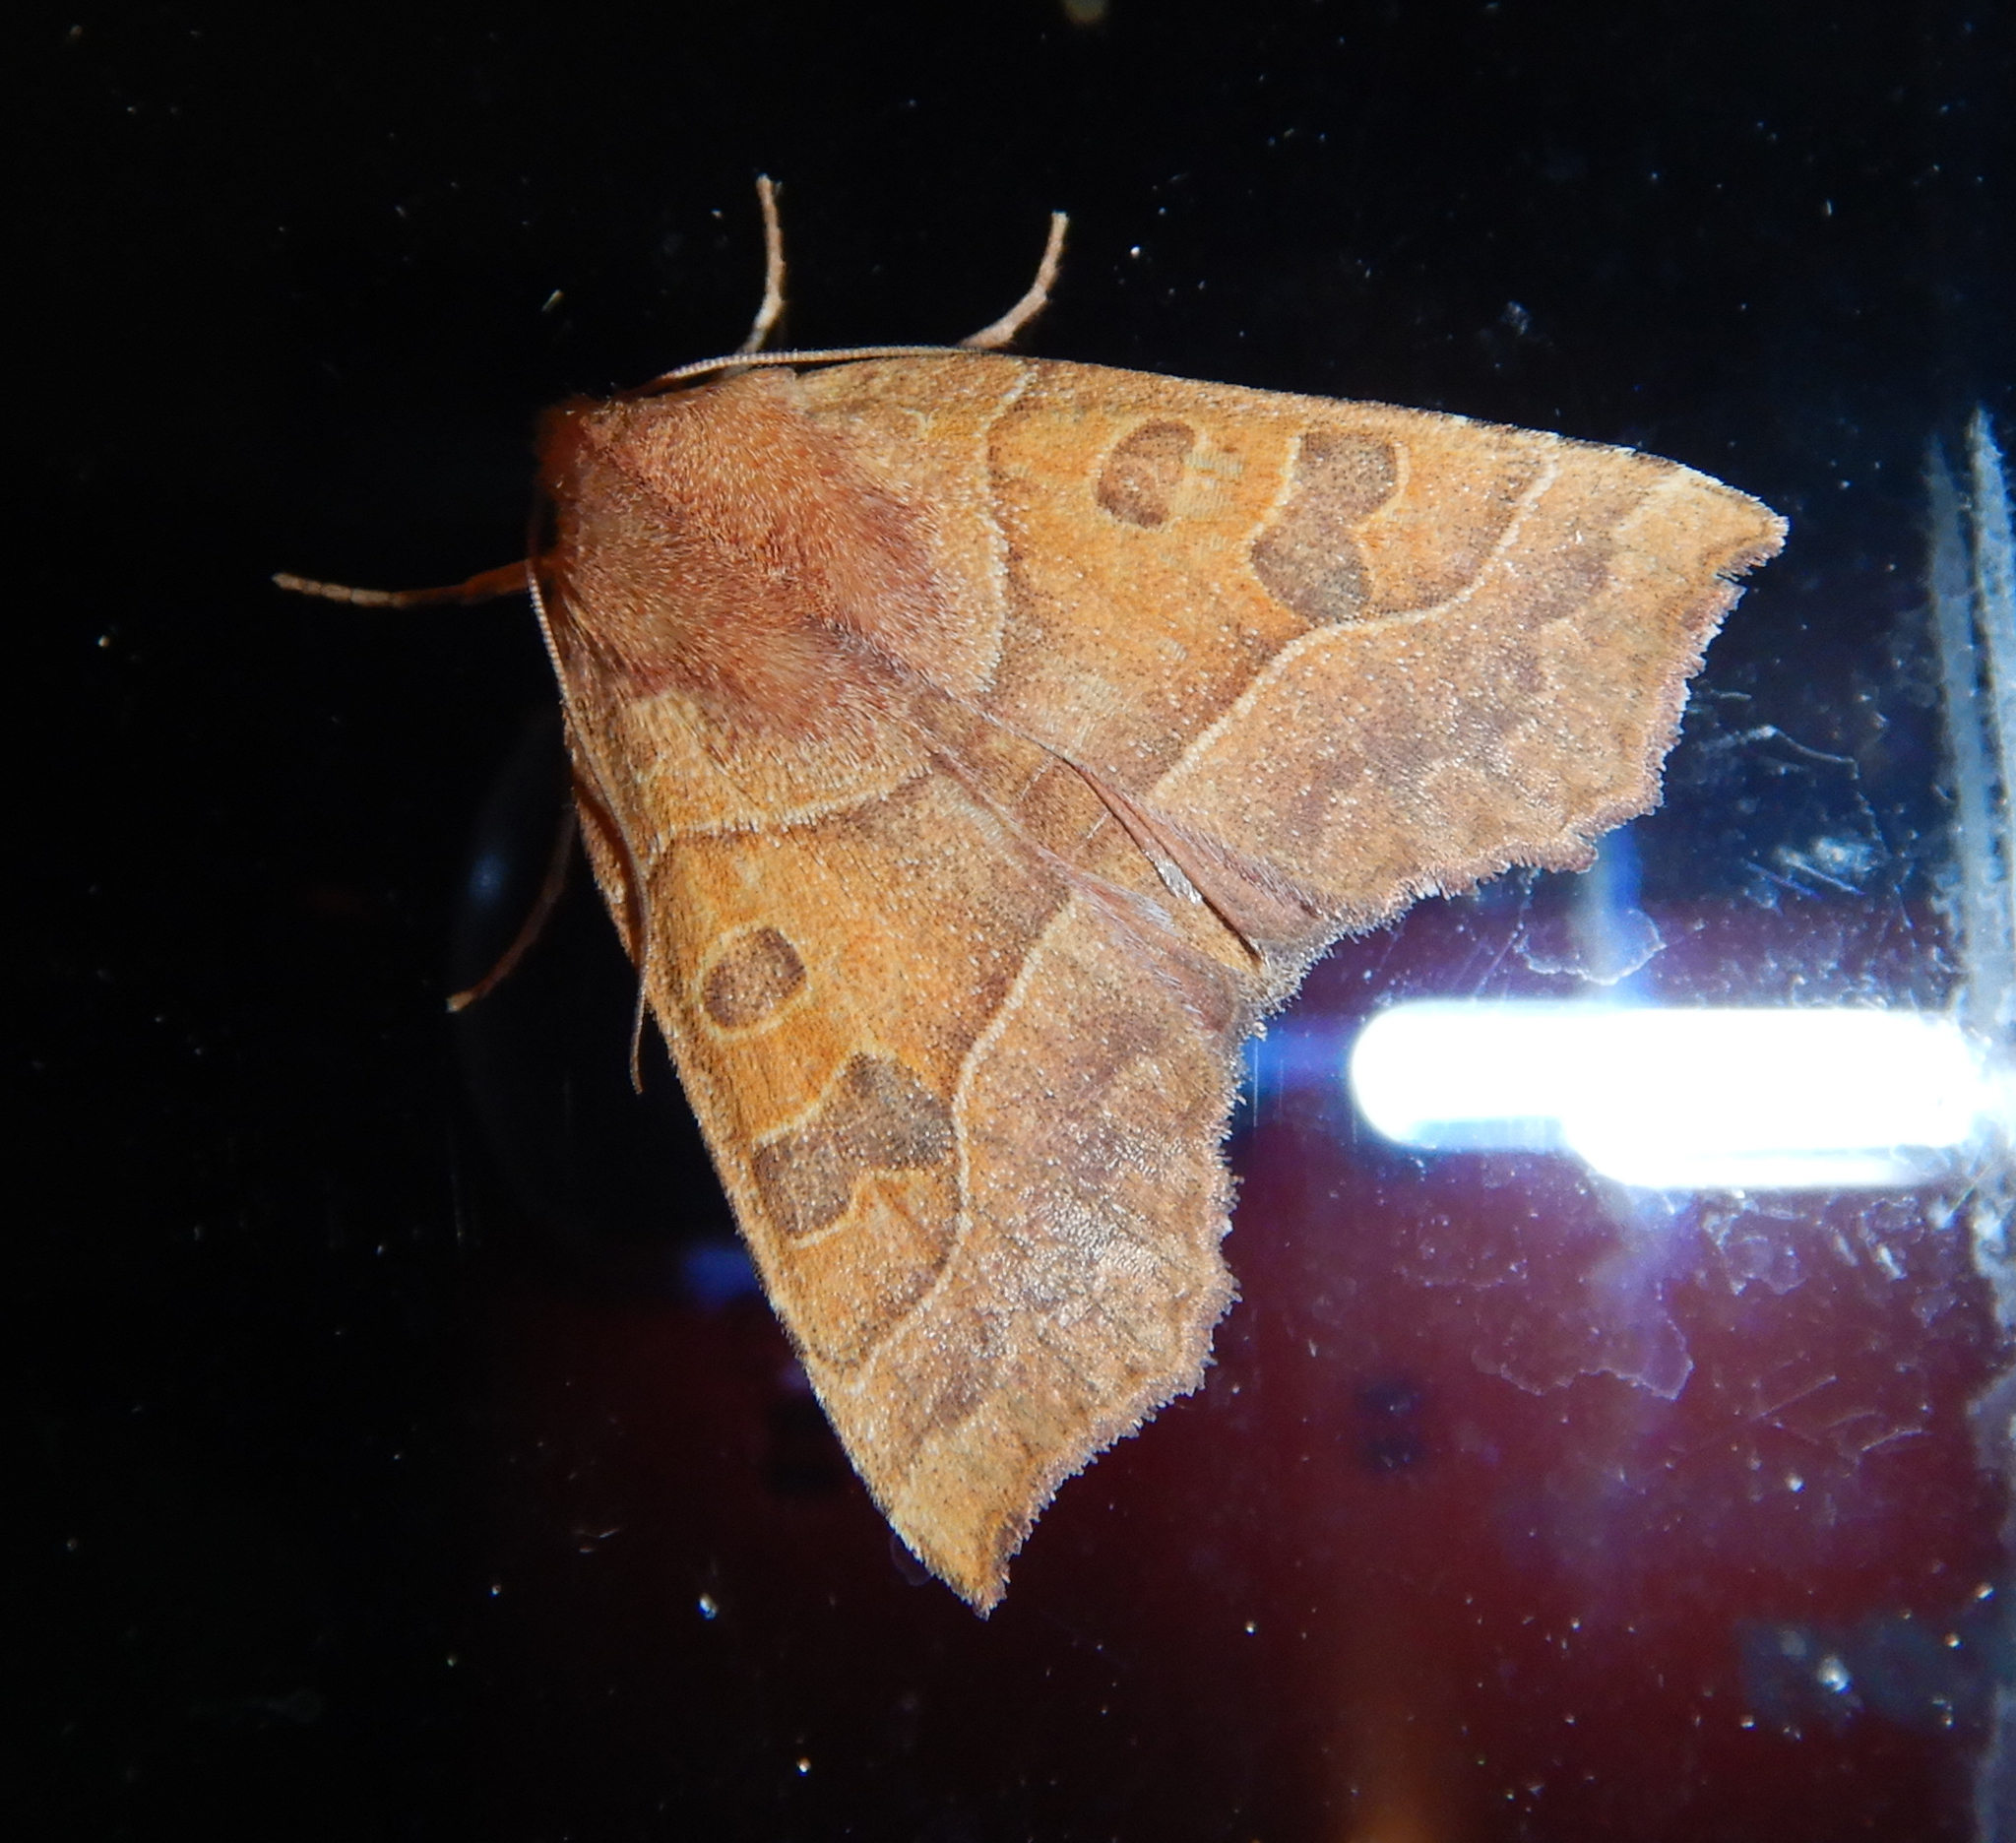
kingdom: Animalia
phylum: Arthropoda
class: Insecta
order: Lepidoptera
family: Noctuidae
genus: Eucirroedia
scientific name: Eucirroedia pampina
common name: Scalloped sallow
